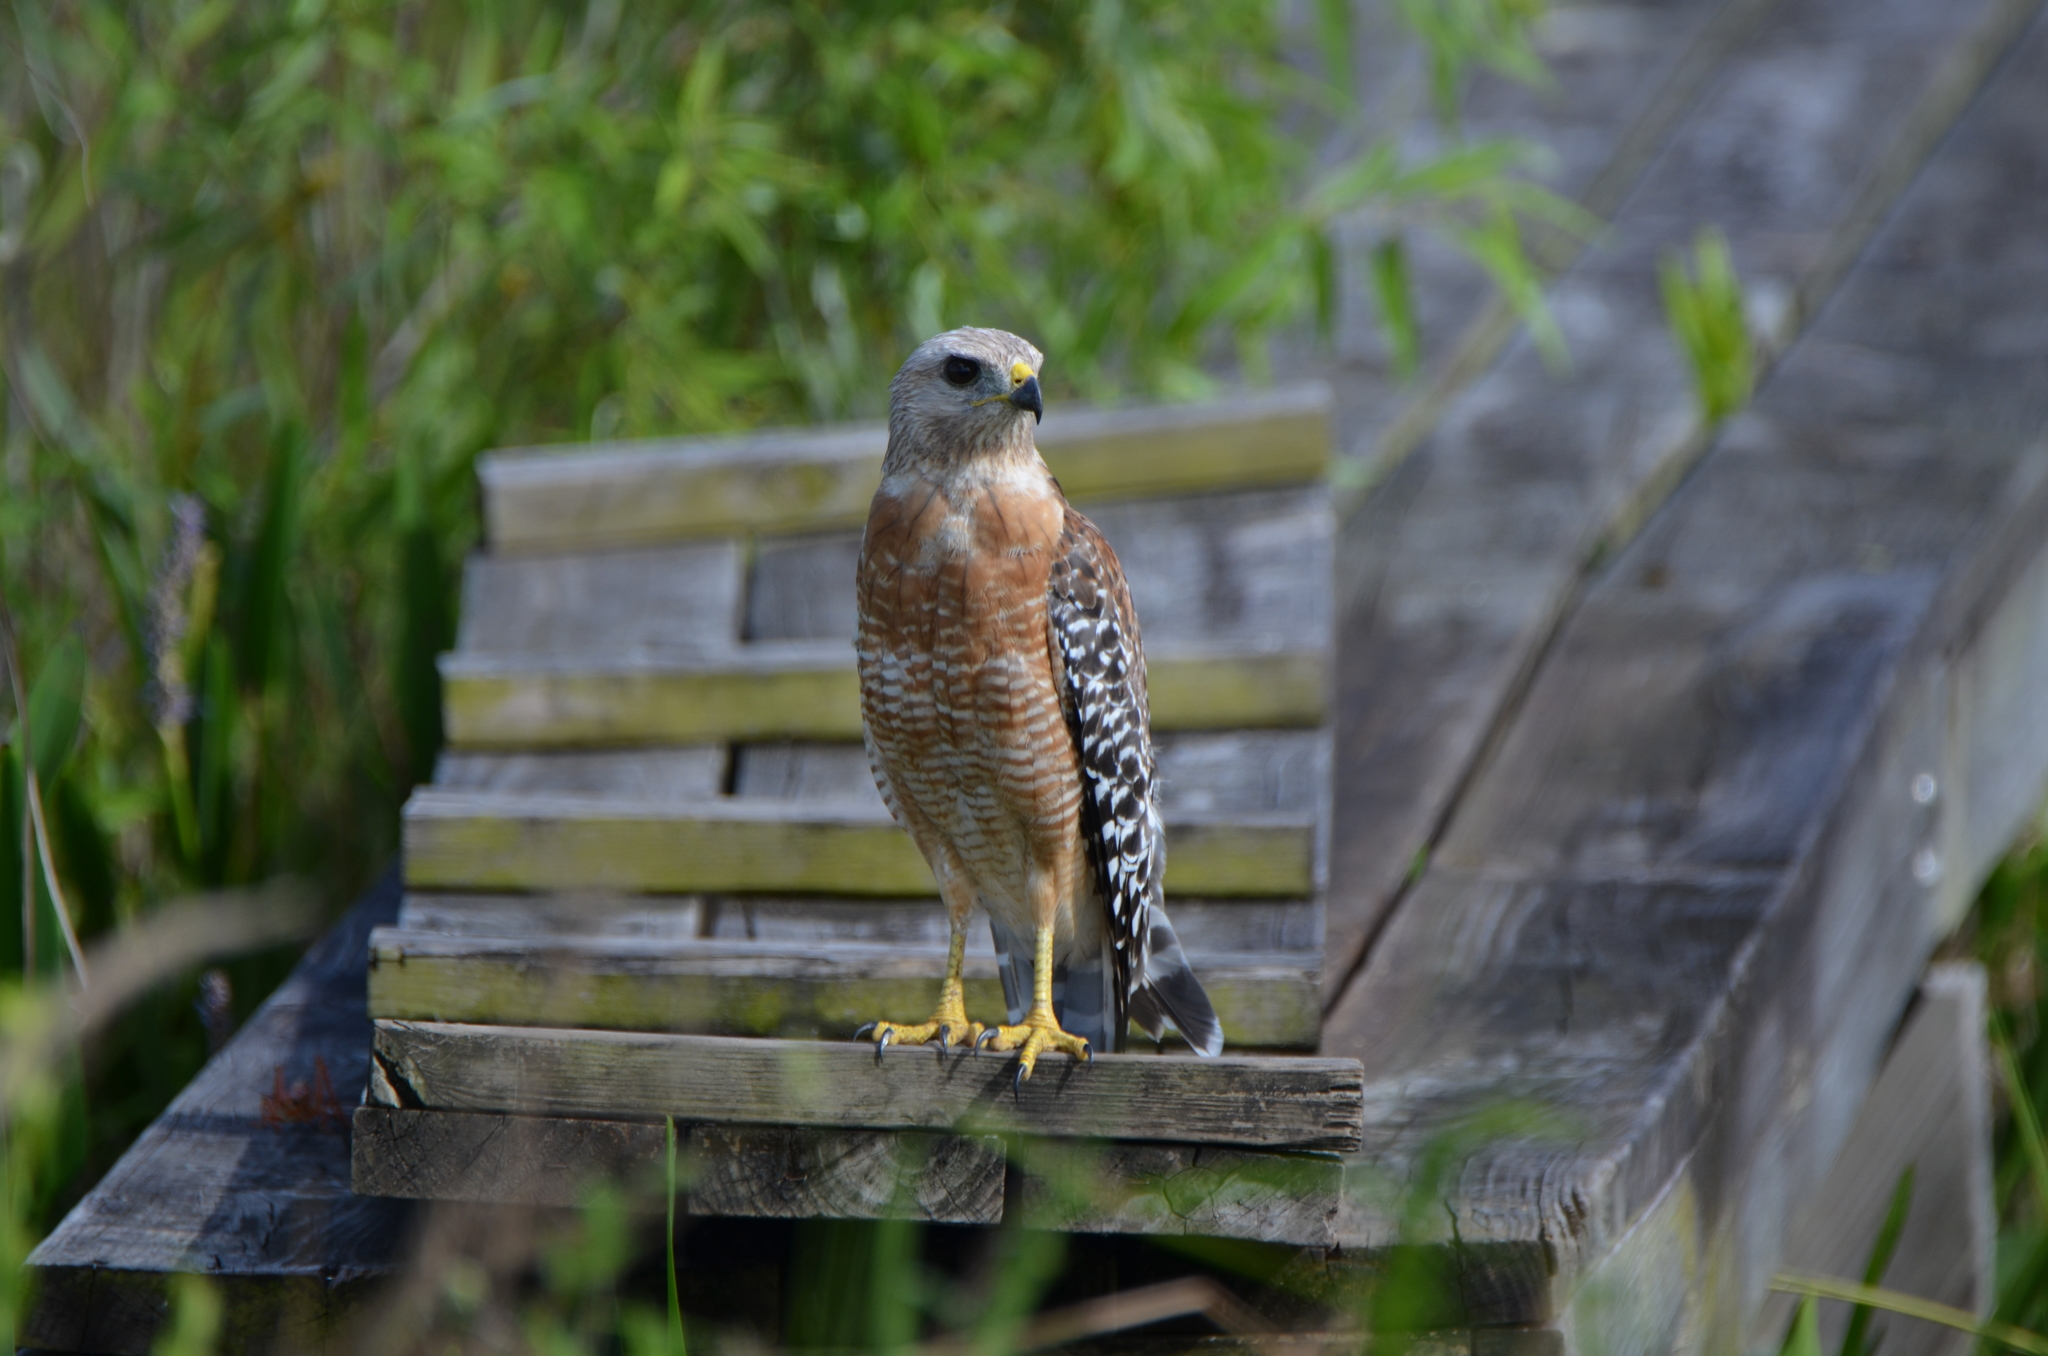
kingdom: Animalia
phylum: Chordata
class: Aves
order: Accipitriformes
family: Accipitridae
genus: Buteo
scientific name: Buteo lineatus
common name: Red-shouldered hawk
